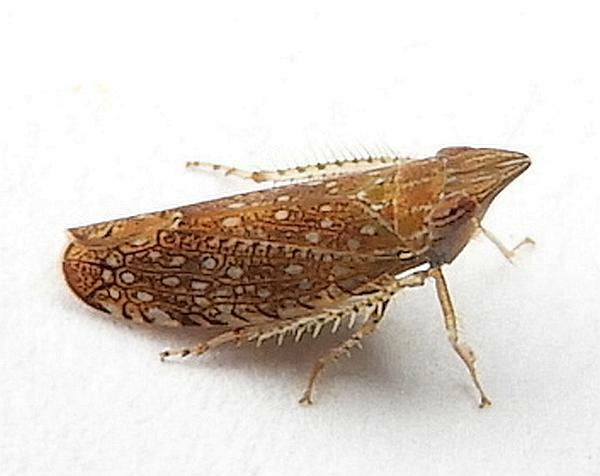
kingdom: Animalia
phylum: Arthropoda
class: Insecta
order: Hemiptera
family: Cicadellidae
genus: Scaphytopius
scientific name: Scaphytopius acutus
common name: The sharp-nosed leafhopper
